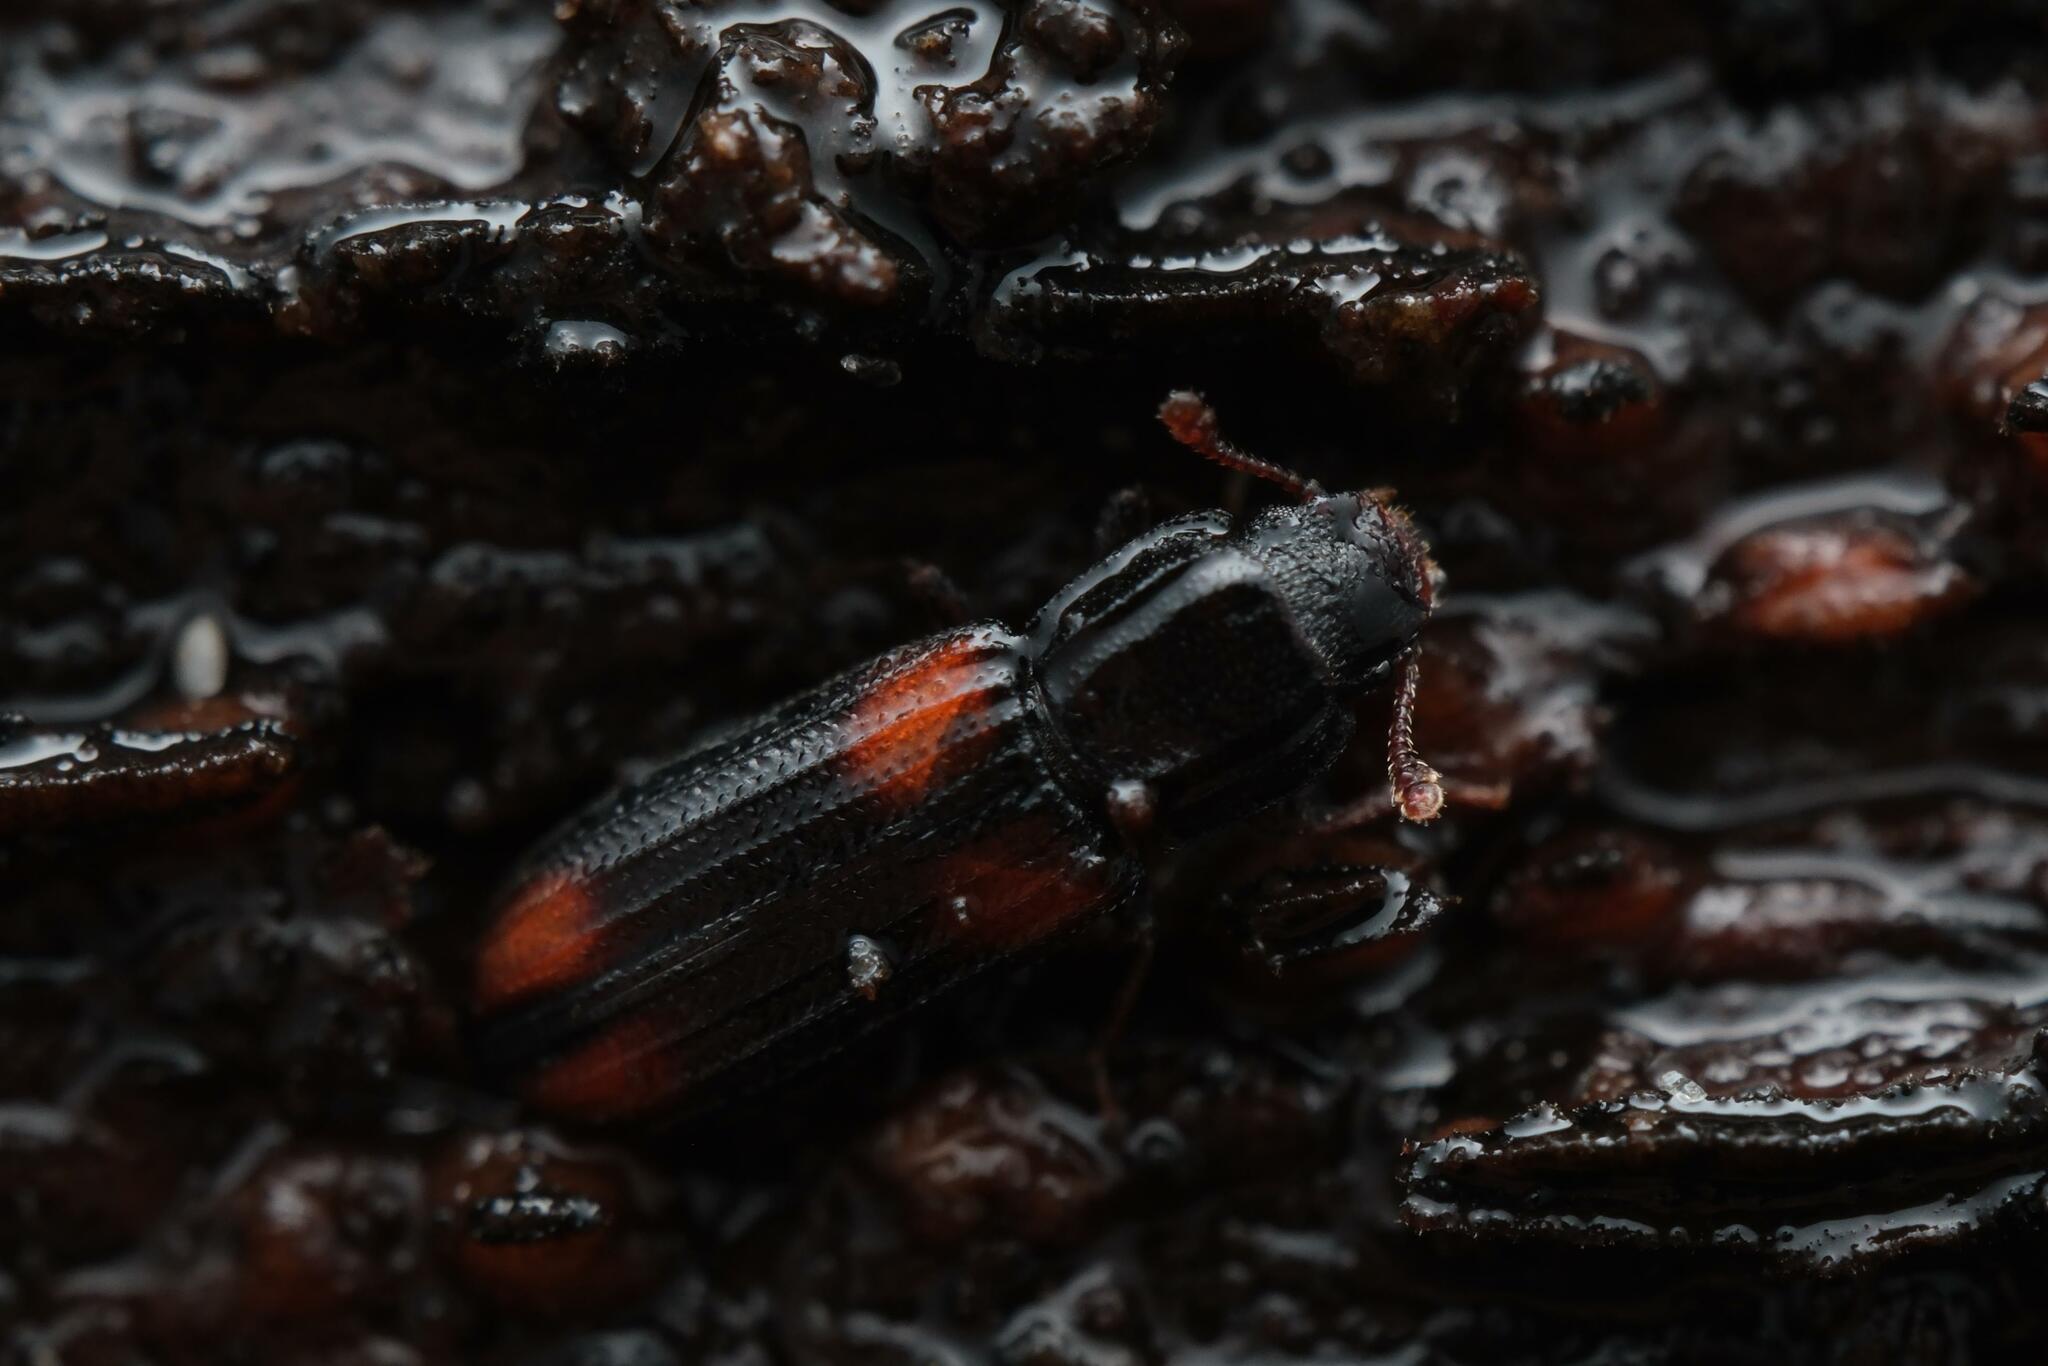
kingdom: Animalia
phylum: Arthropoda
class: Insecta
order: Coleoptera
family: Zopheridae
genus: Bitoma
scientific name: Bitoma crenata
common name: Bark beetle
